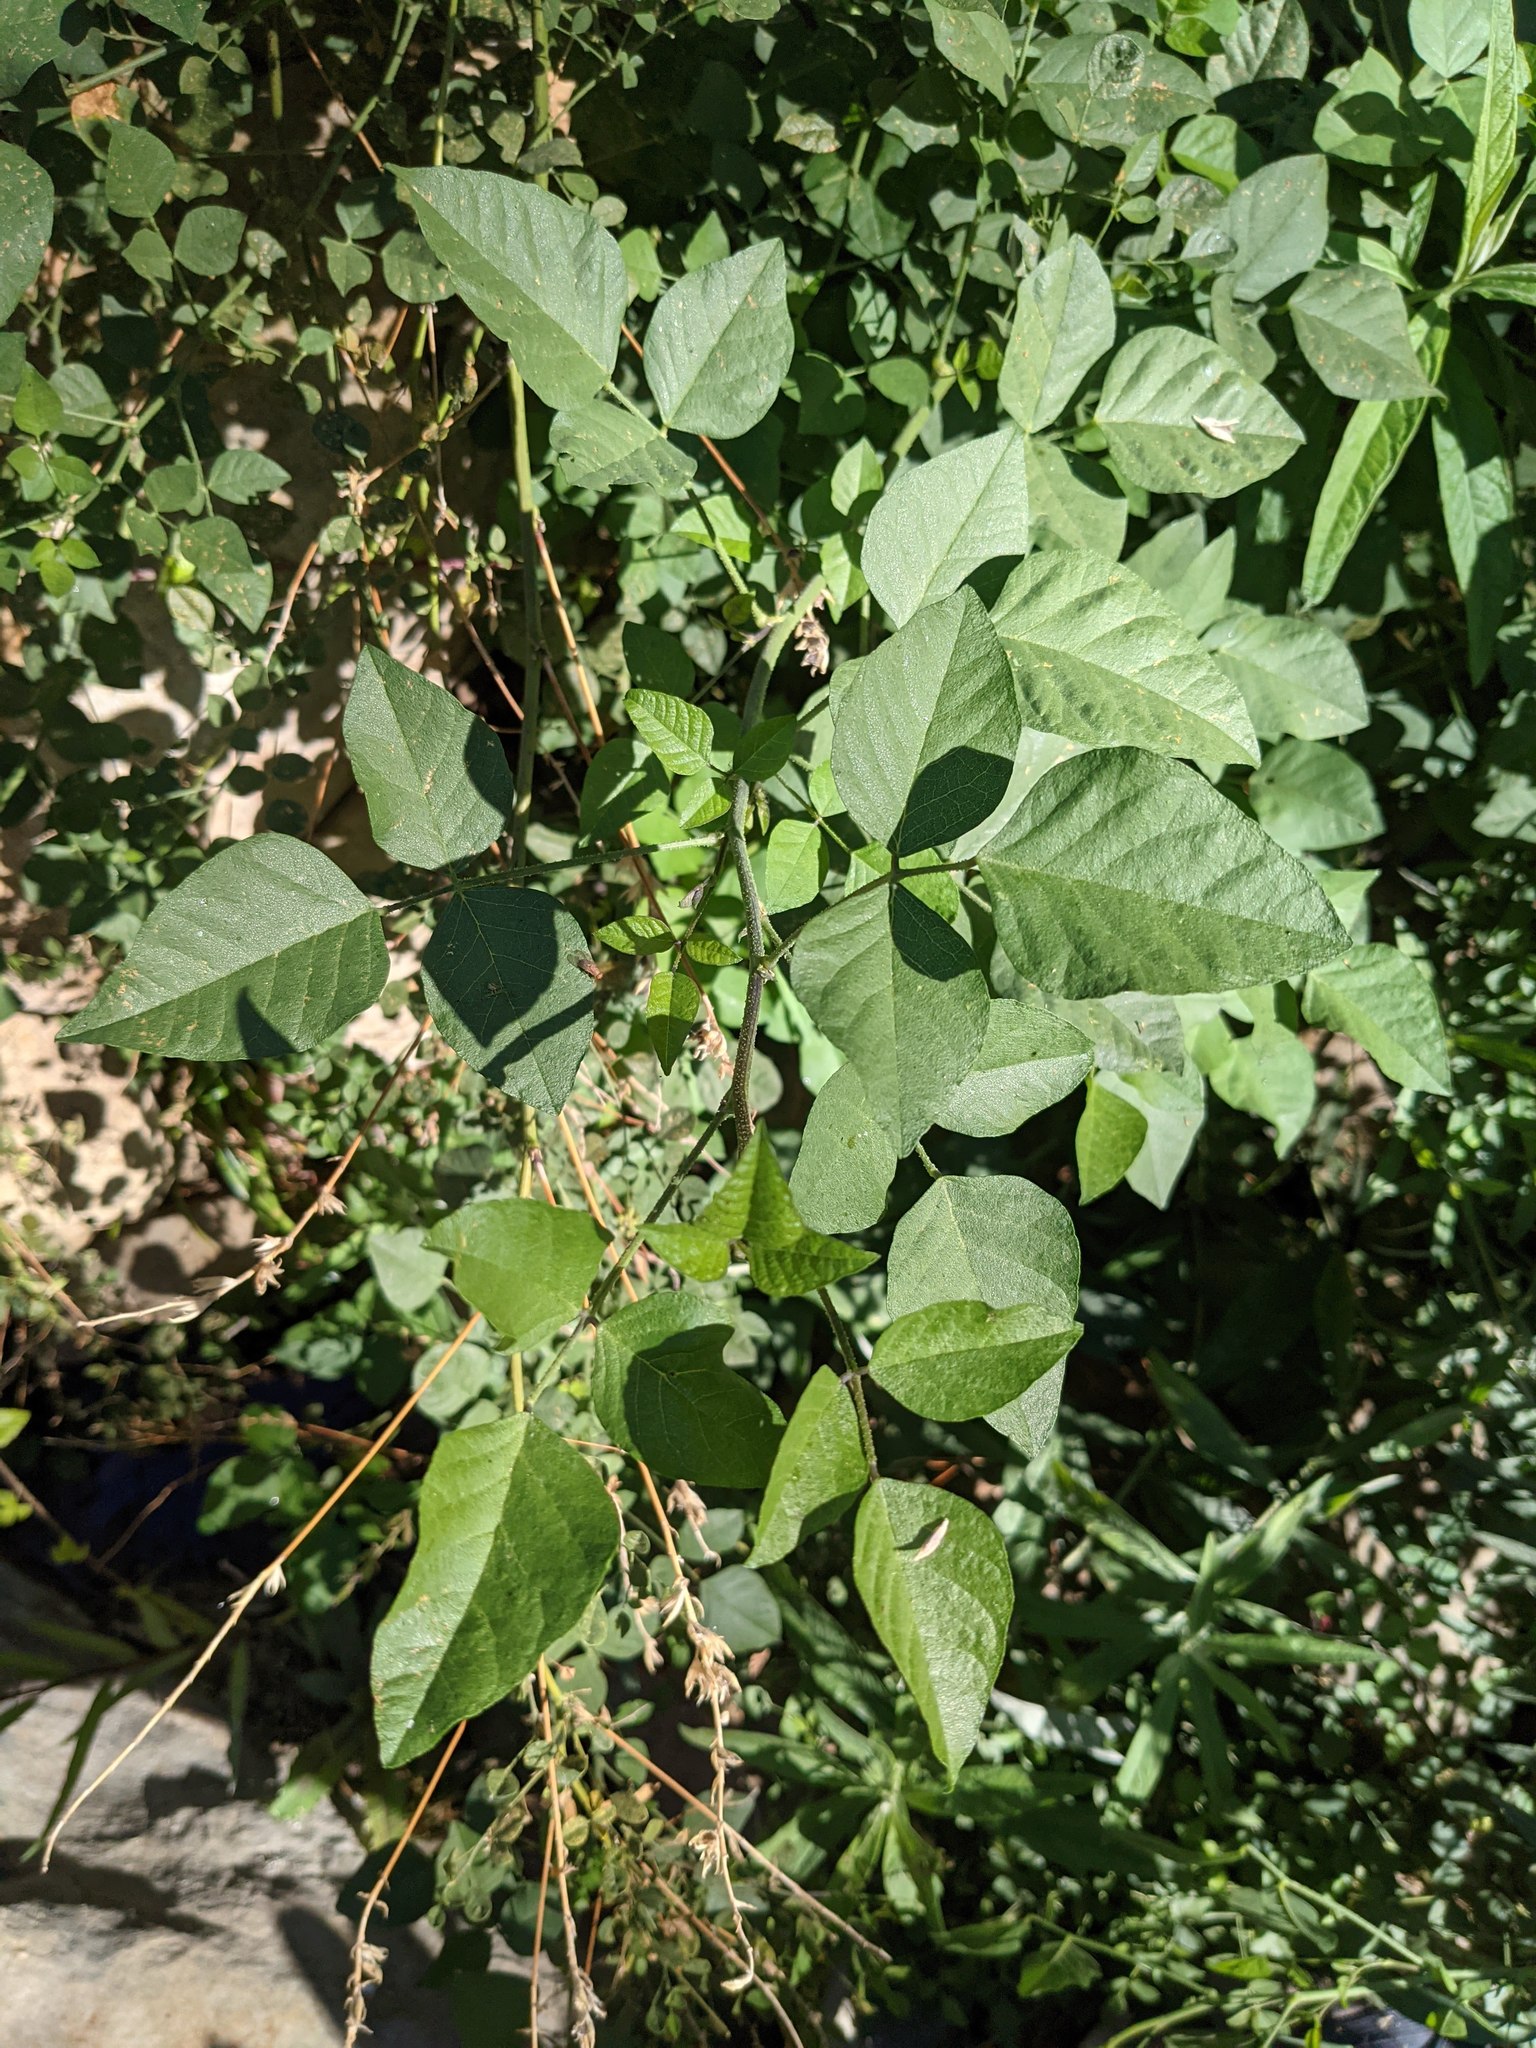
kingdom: Plantae
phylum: Tracheophyta
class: Magnoliopsida
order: Fabales
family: Fabaceae
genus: Hoita
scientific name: Hoita macrostachya
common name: Leatherroot
